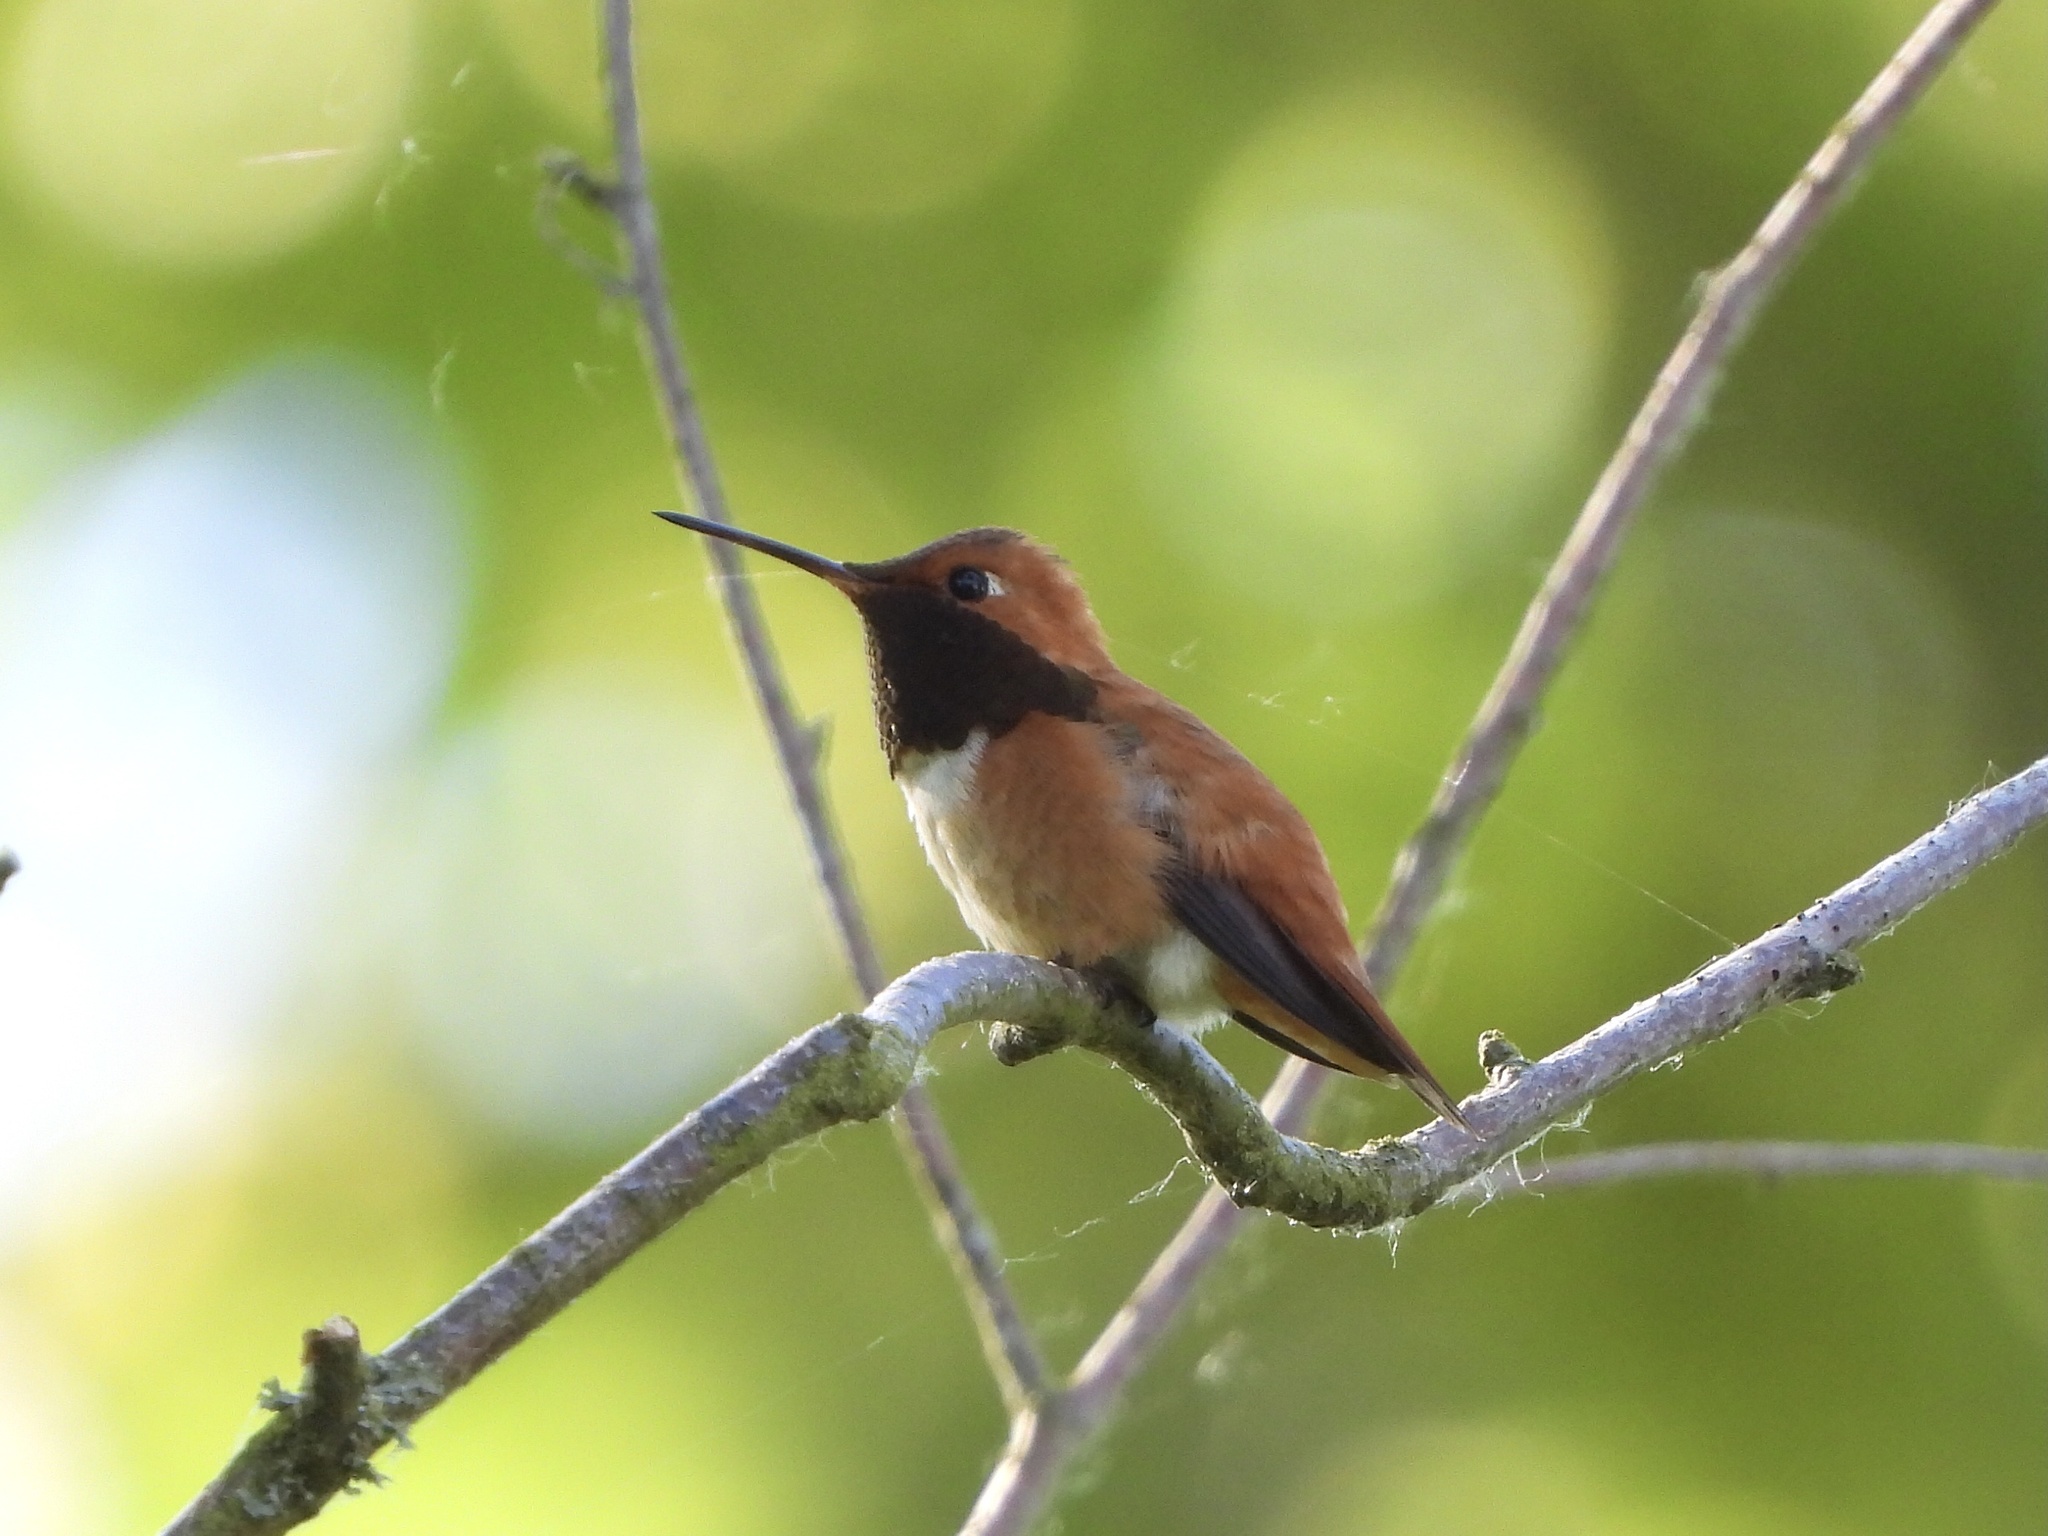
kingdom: Animalia
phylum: Chordata
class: Aves
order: Apodiformes
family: Trochilidae
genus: Selasphorus
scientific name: Selasphorus rufus
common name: Rufous hummingbird
